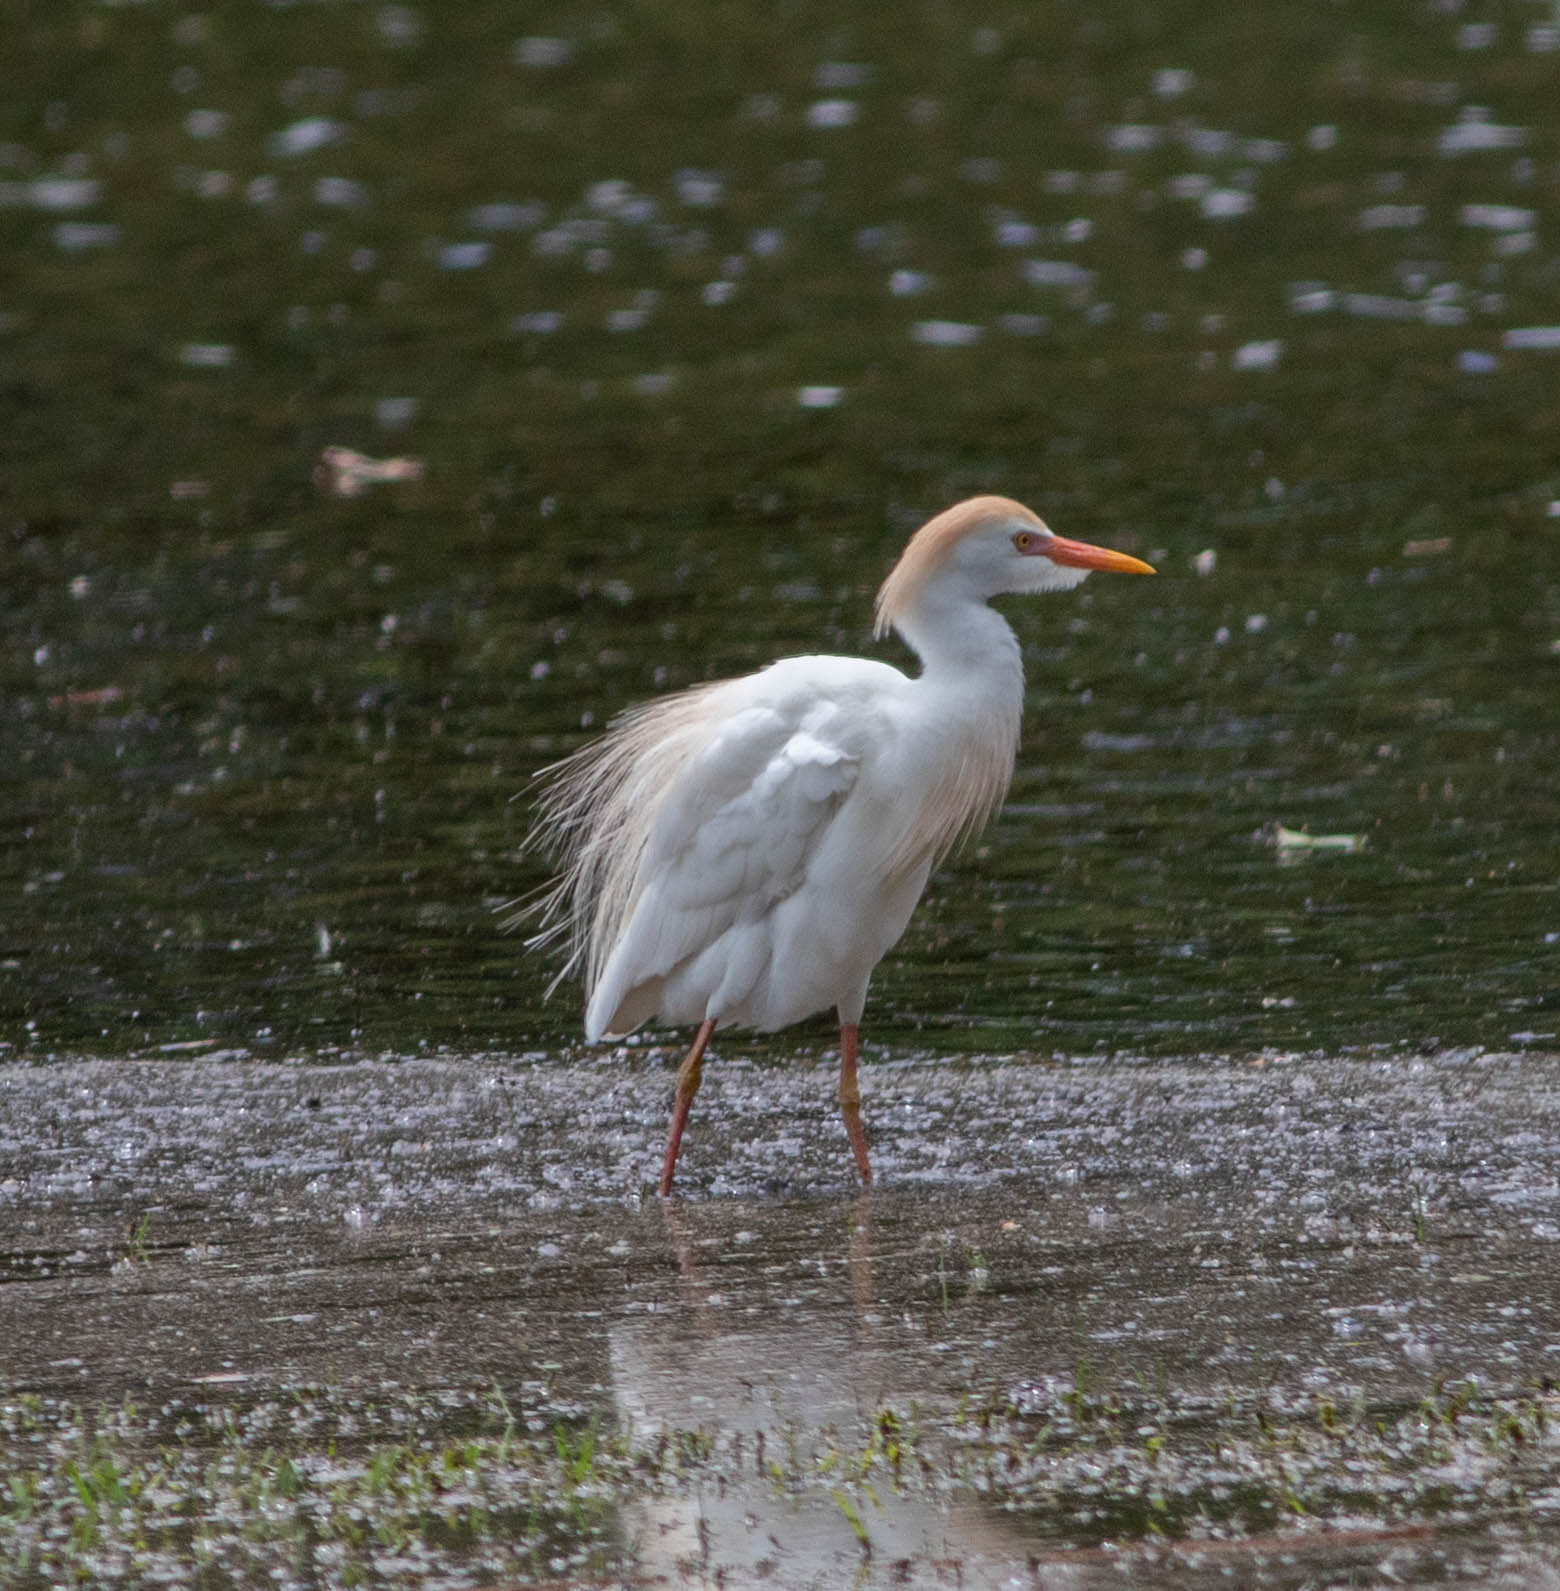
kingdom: Animalia
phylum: Chordata
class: Aves
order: Pelecaniformes
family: Ardeidae
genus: Bubulcus
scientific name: Bubulcus ibis
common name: Cattle egret
